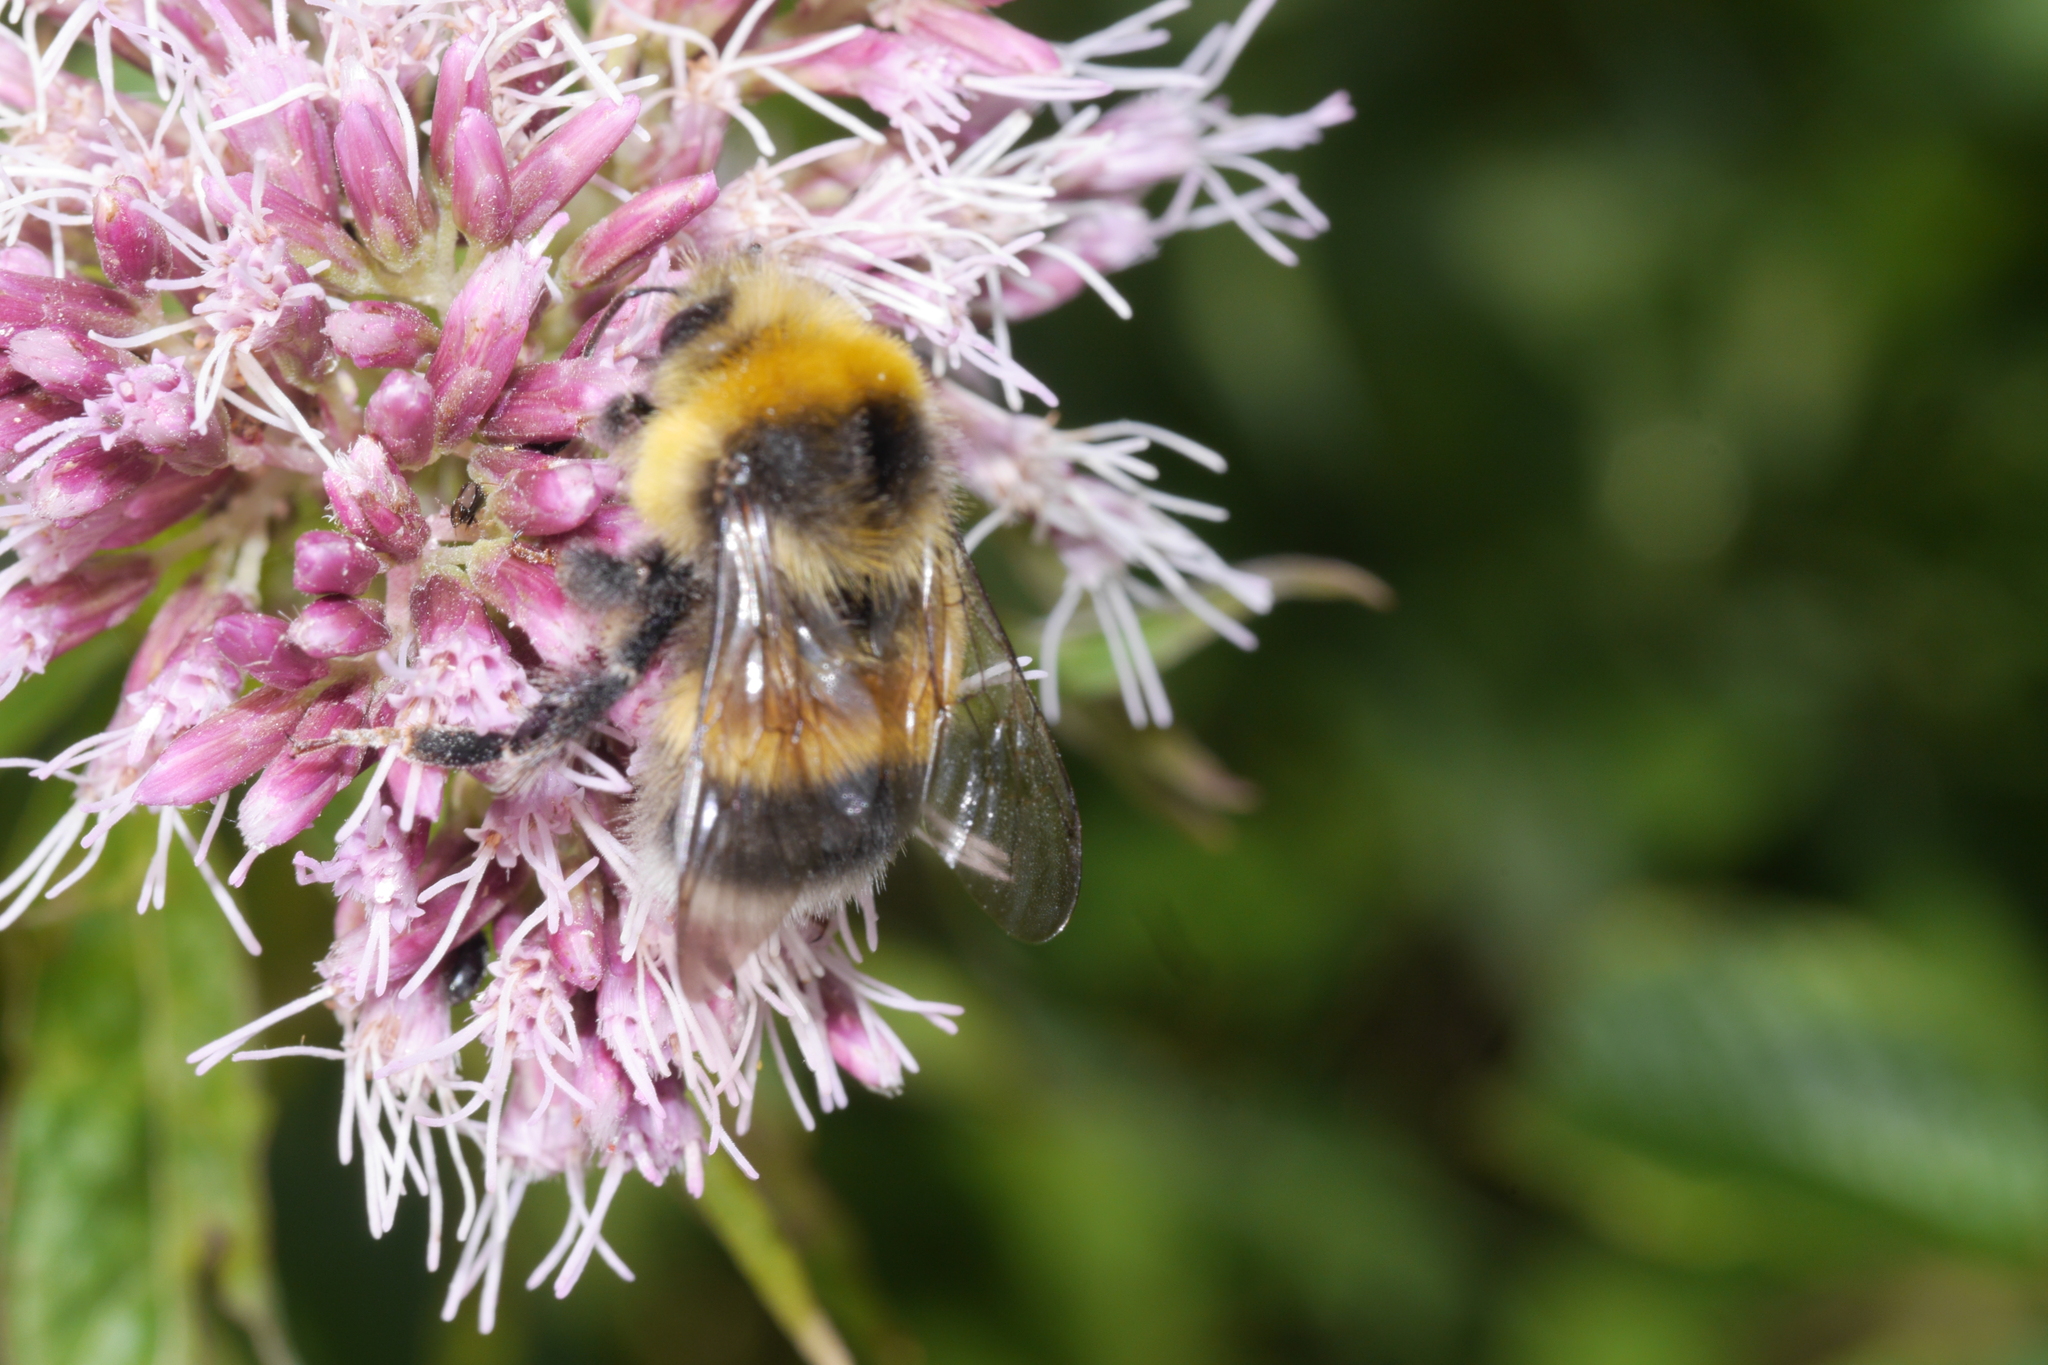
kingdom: Animalia
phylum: Arthropoda
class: Insecta
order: Hymenoptera
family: Apidae
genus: Bombus
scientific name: Bombus lucorum
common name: White-tailed bumblebee
